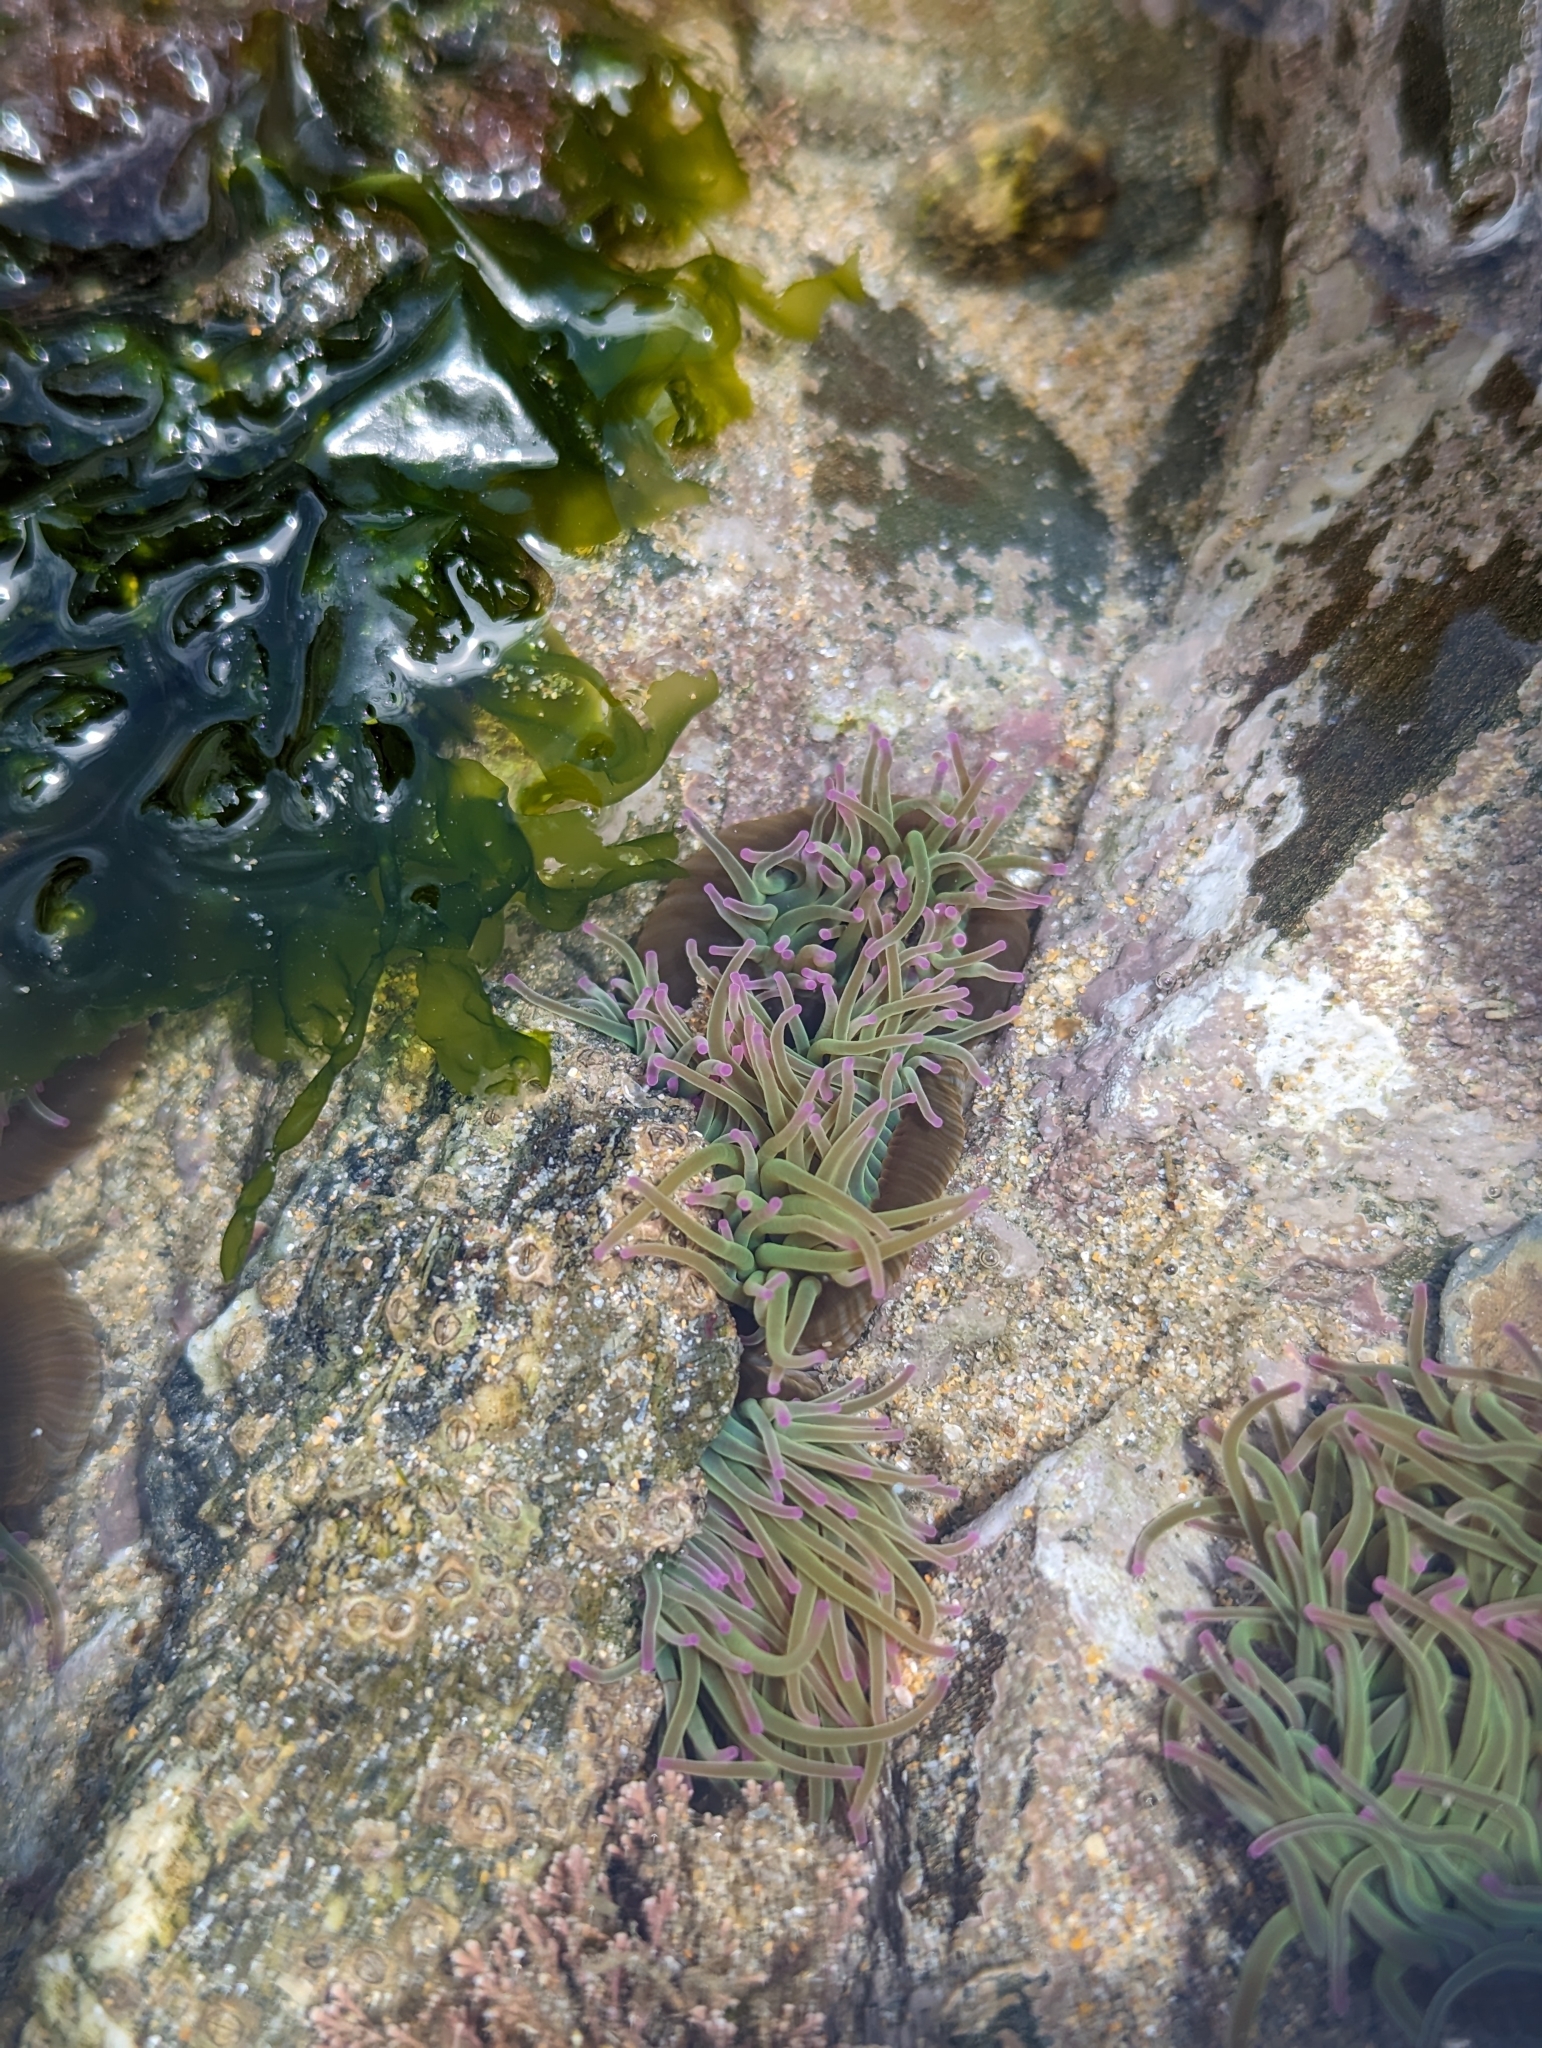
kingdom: Animalia
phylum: Cnidaria
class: Anthozoa
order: Actiniaria
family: Actiniidae
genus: Anemonia
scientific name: Anemonia viridis
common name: Snakelocks anemone
